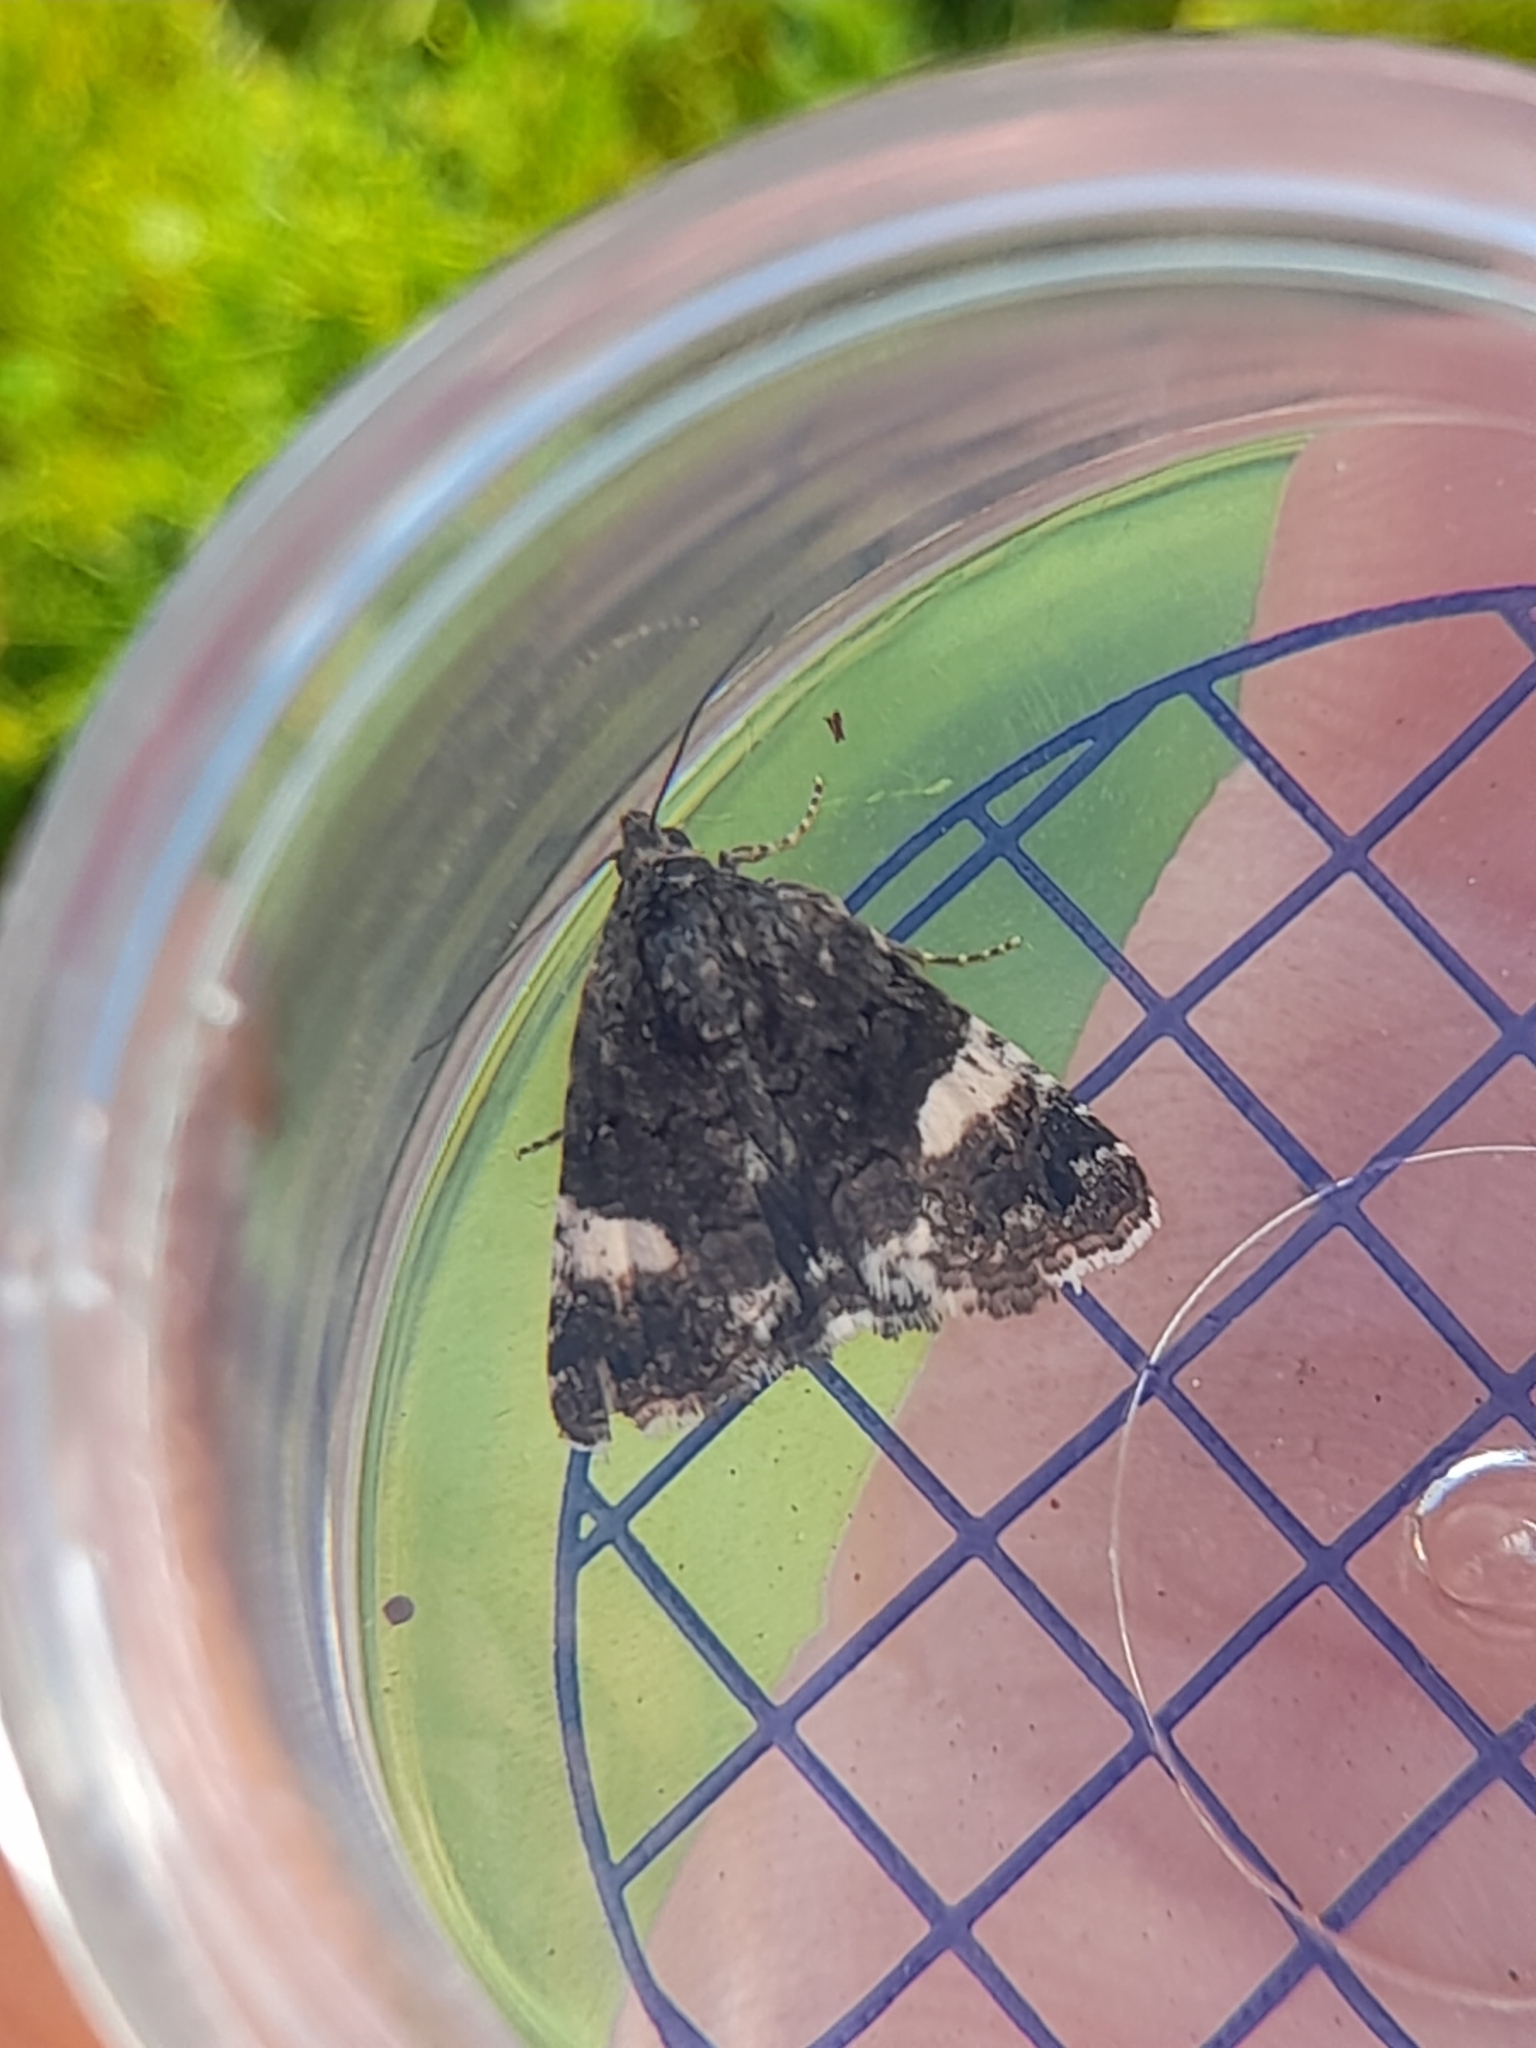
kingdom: Animalia
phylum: Arthropoda
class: Insecta
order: Lepidoptera
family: Erebidae
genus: Tyta
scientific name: Tyta luctuosa
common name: Four-spotted
